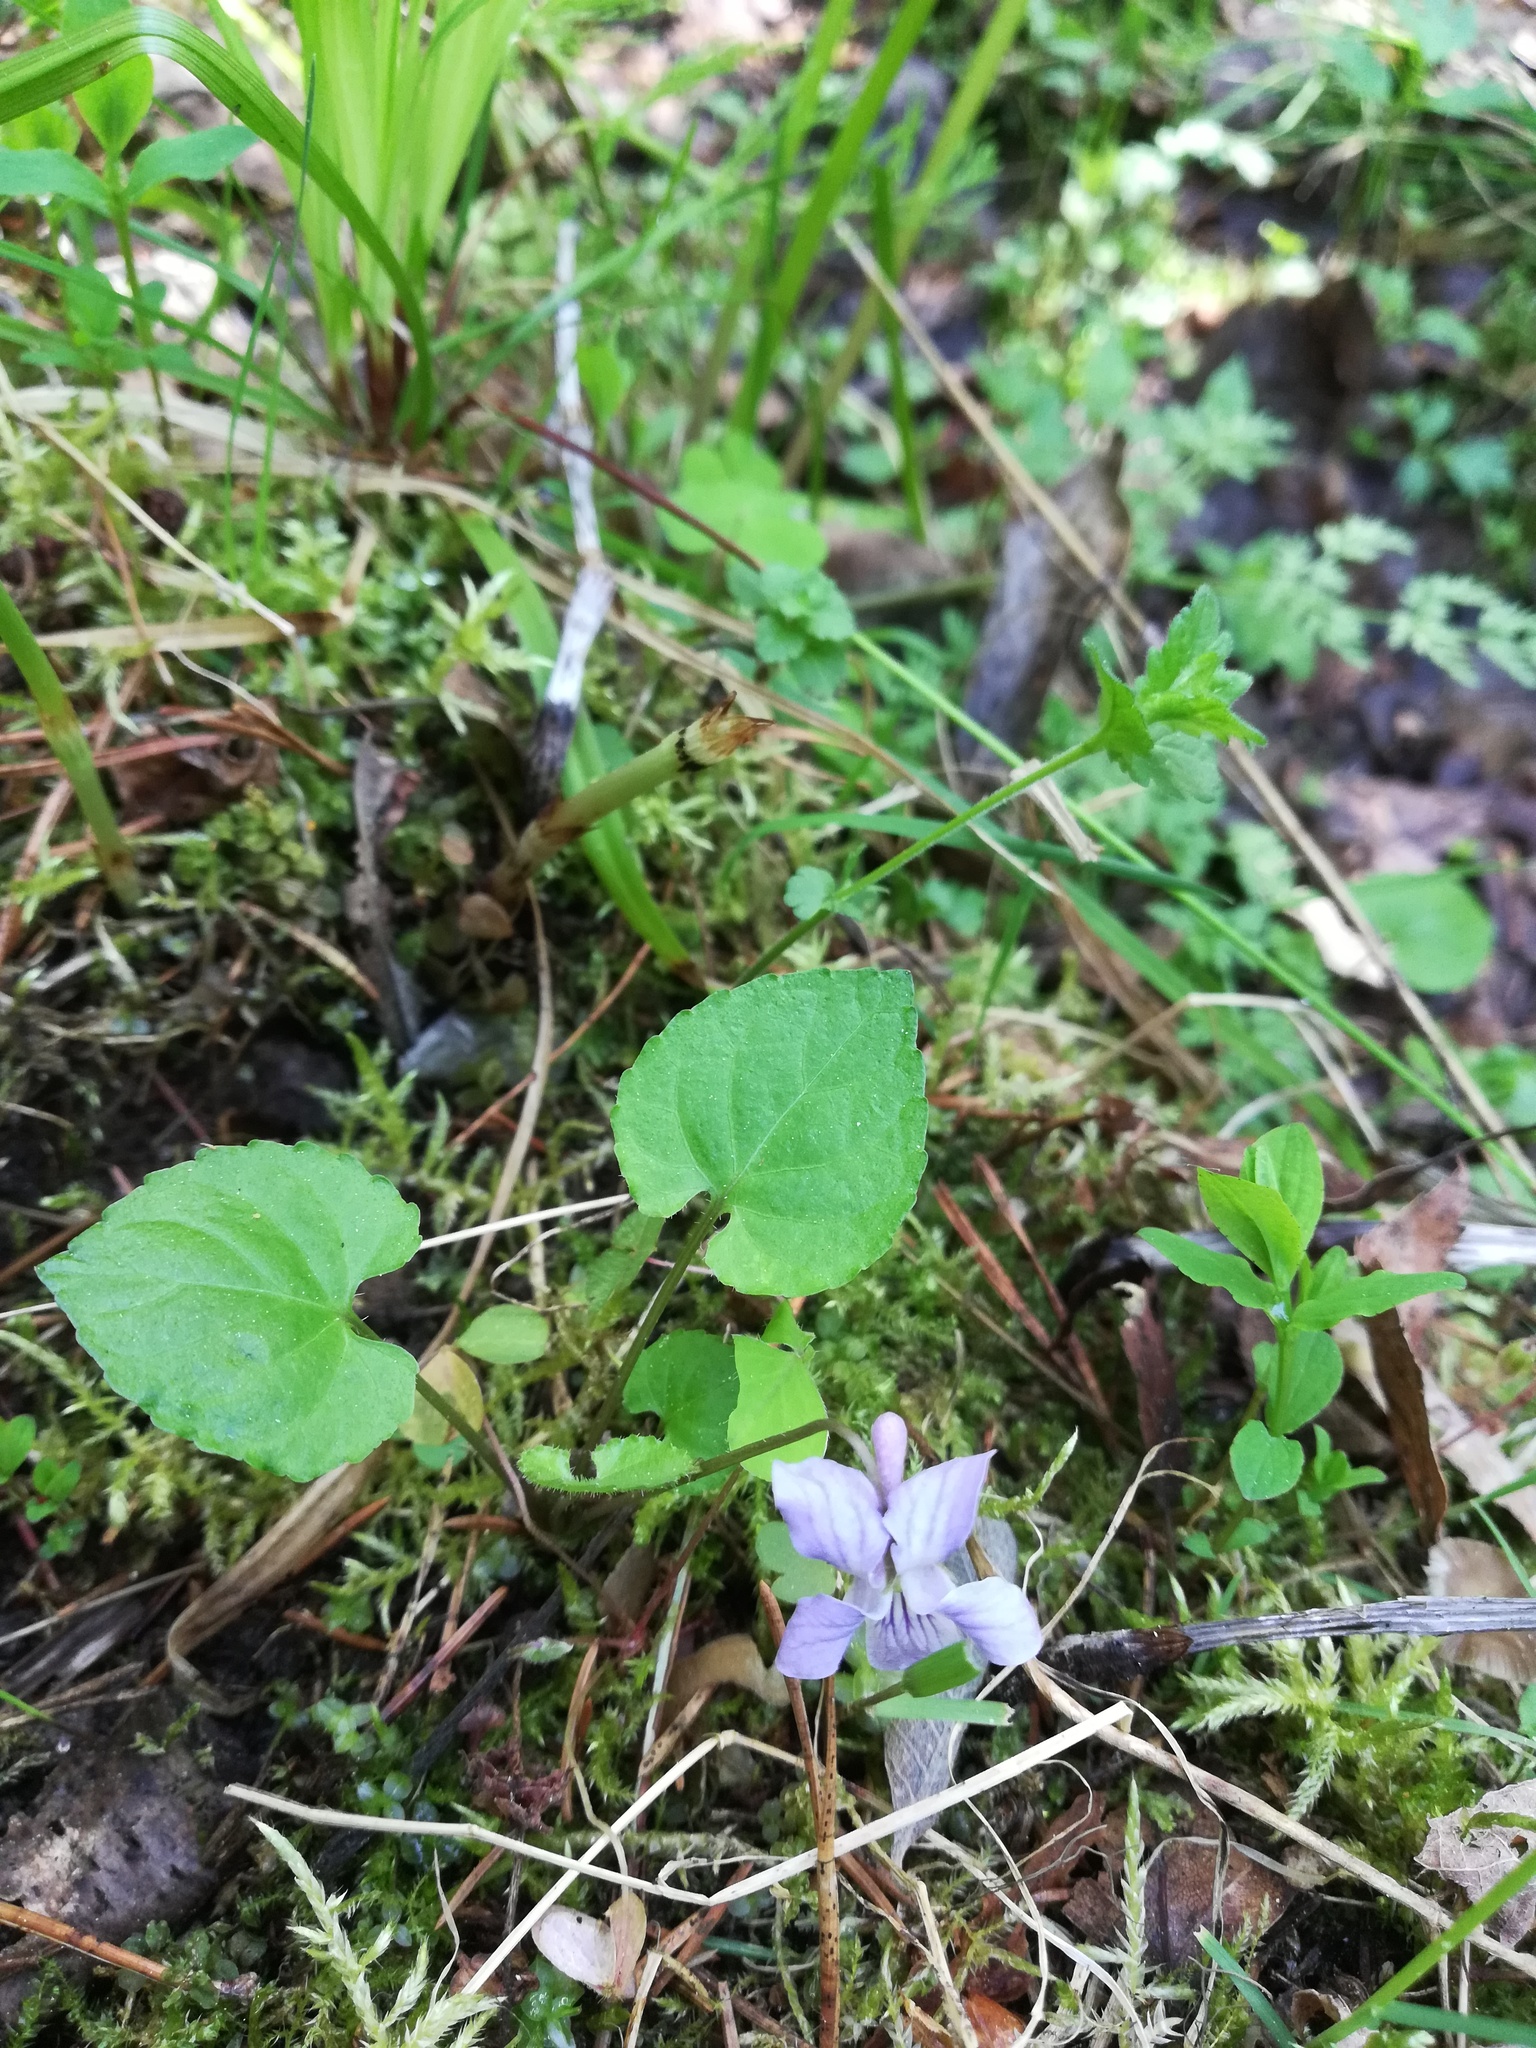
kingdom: Plantae
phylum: Tracheophyta
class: Magnoliopsida
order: Malpighiales
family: Violaceae
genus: Viola
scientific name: Viola selkirkii
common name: Selkirk's violet
